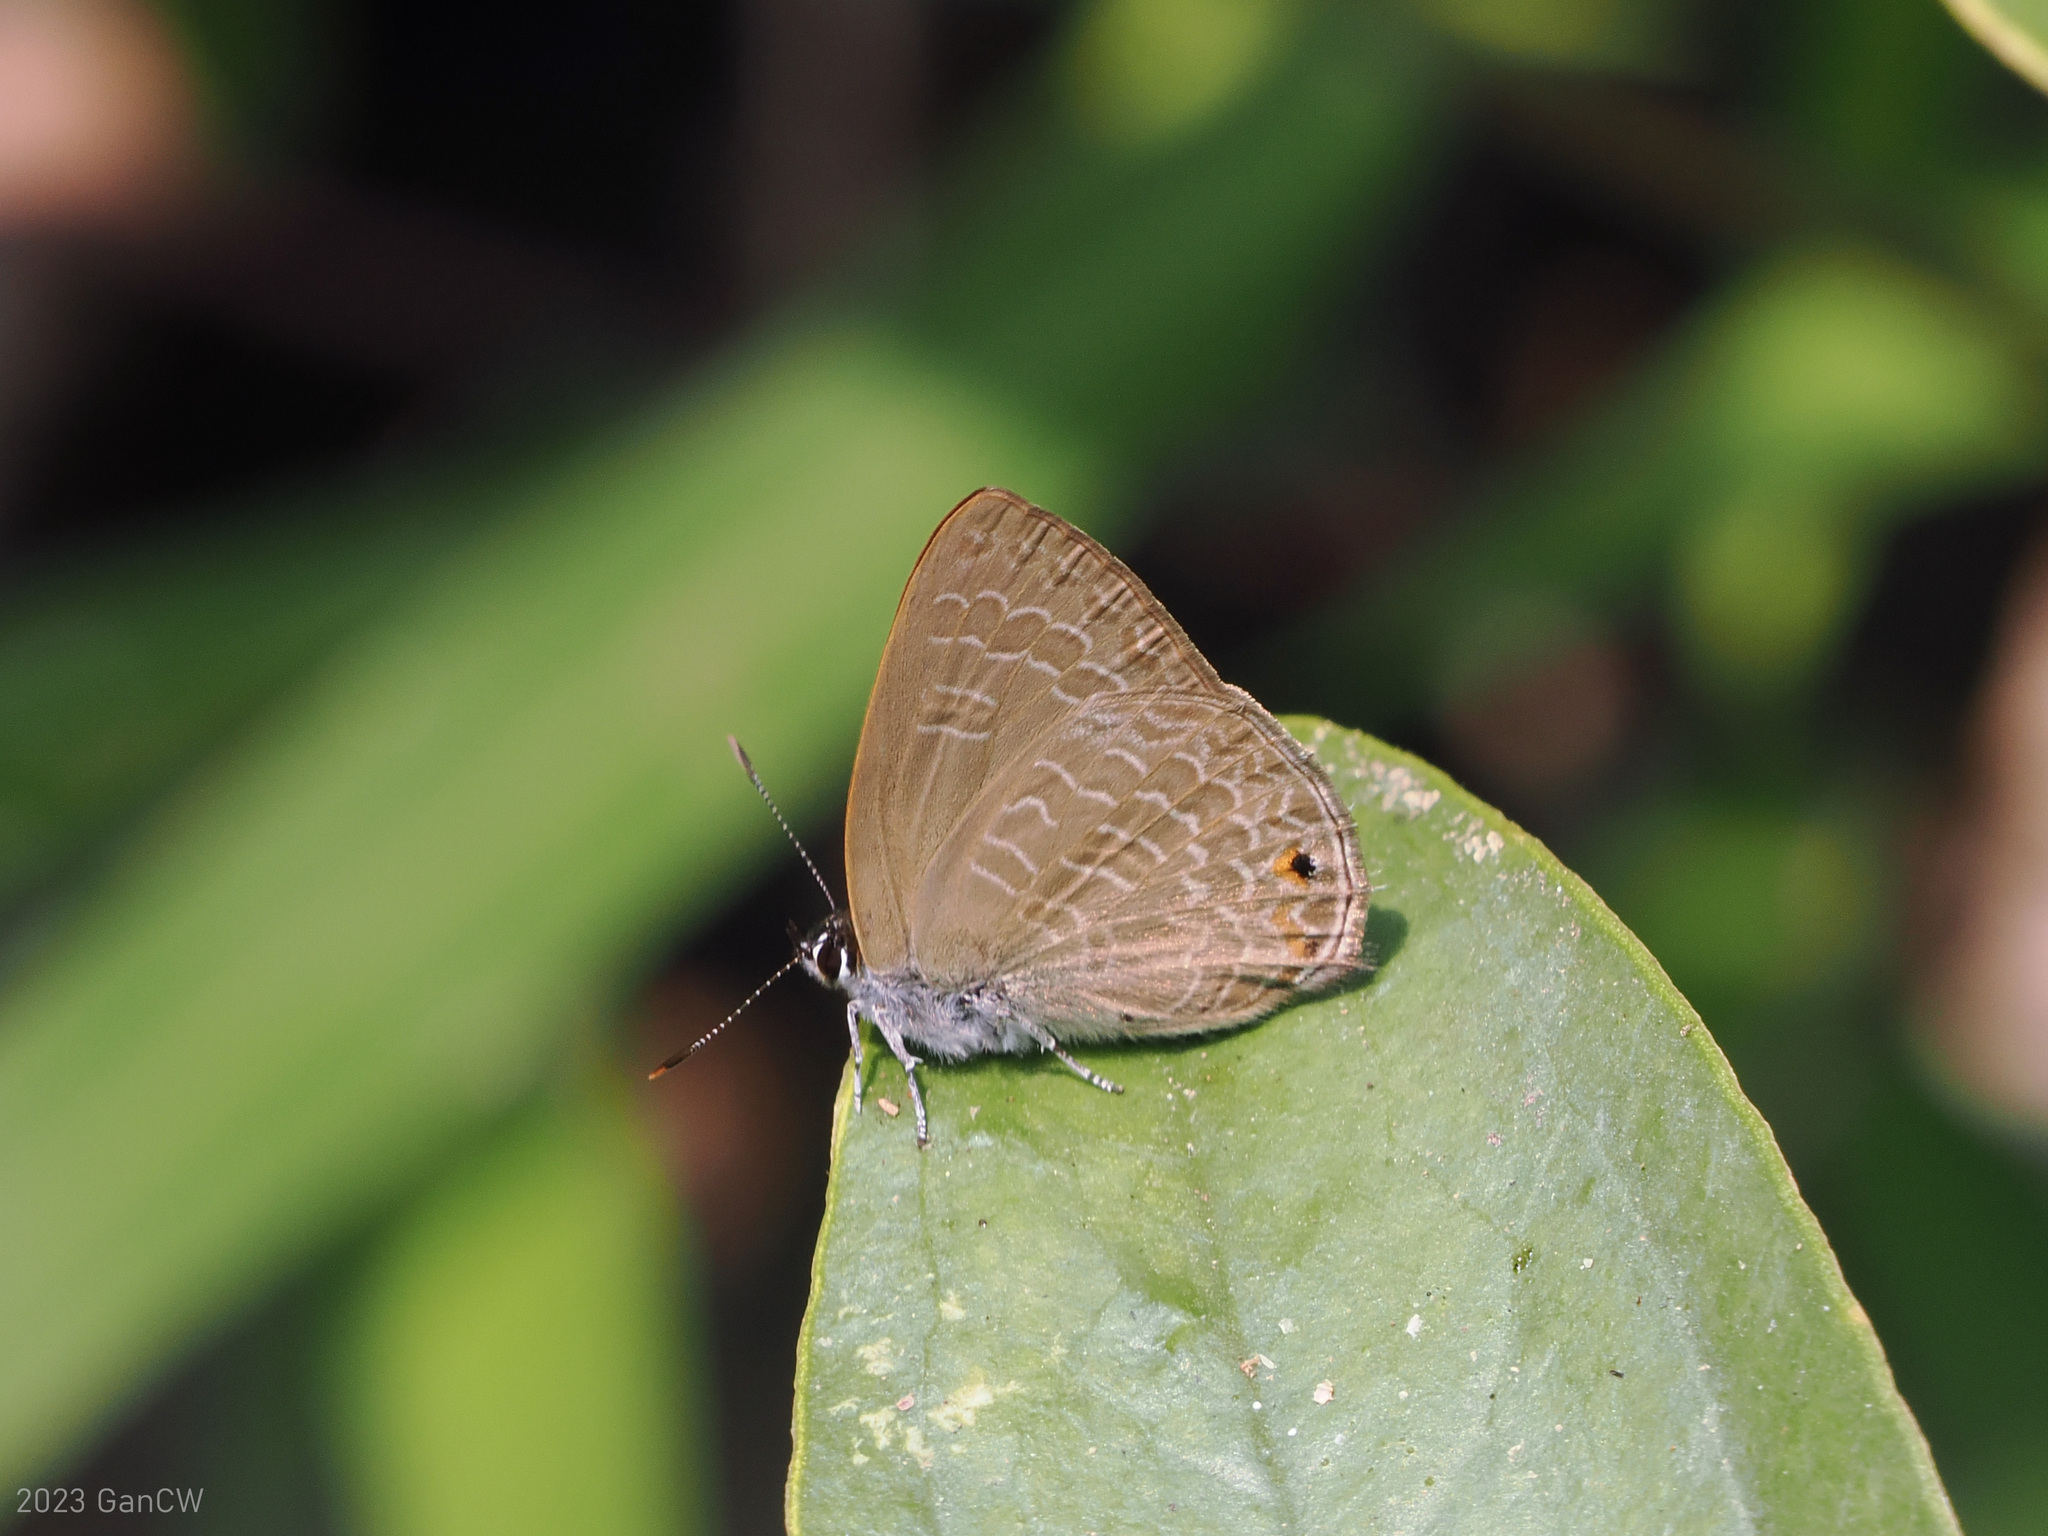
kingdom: Animalia
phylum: Arthropoda
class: Insecta
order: Lepidoptera
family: Lycaenidae
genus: Anthene
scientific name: Anthene emolus
